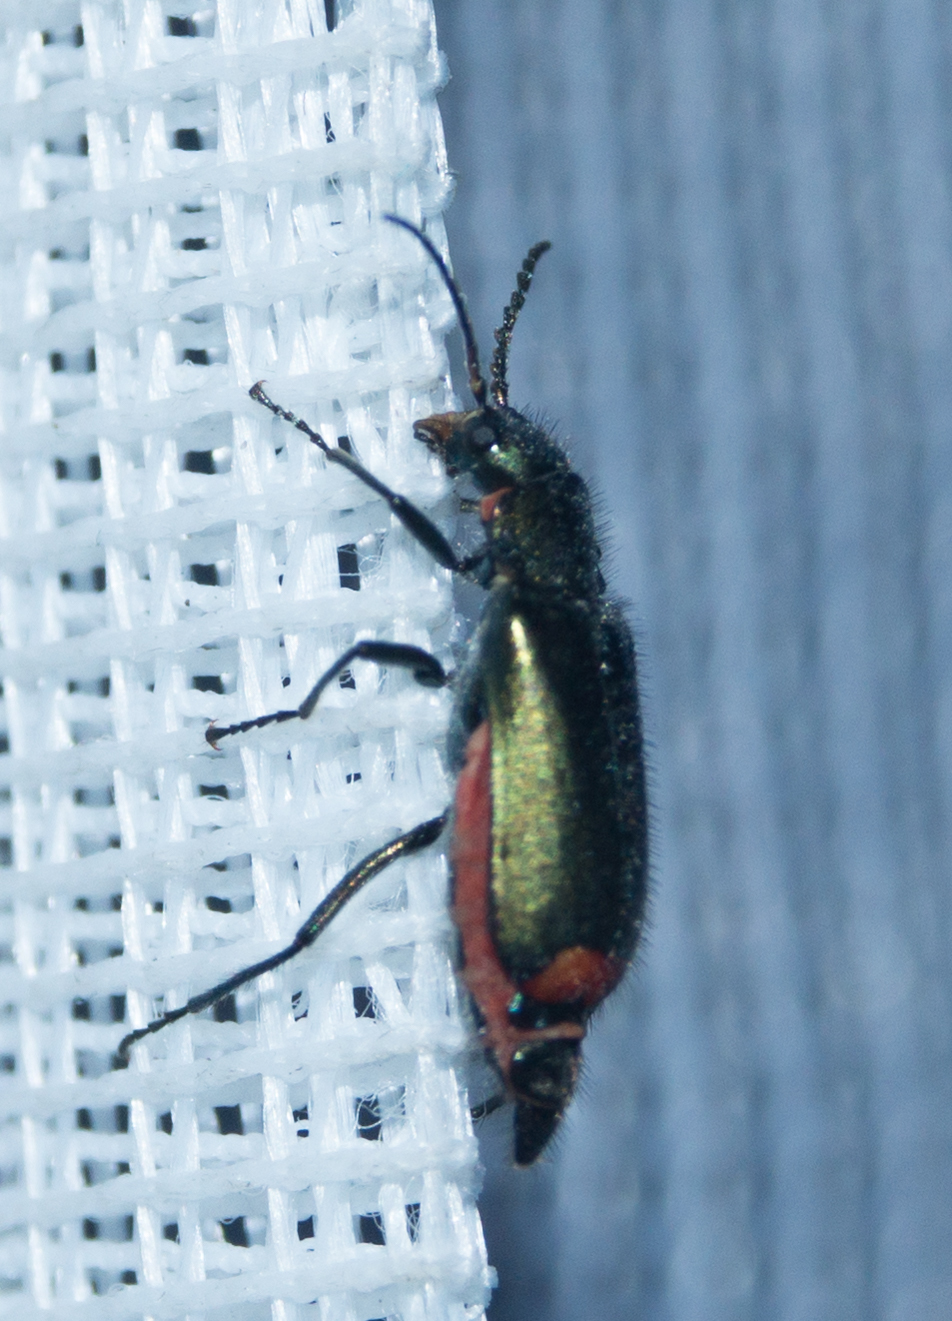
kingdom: Animalia
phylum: Arthropoda
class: Insecta
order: Coleoptera
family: Melyridae
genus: Malachius
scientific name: Malachius bipustulatus
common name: Malachite beetle
